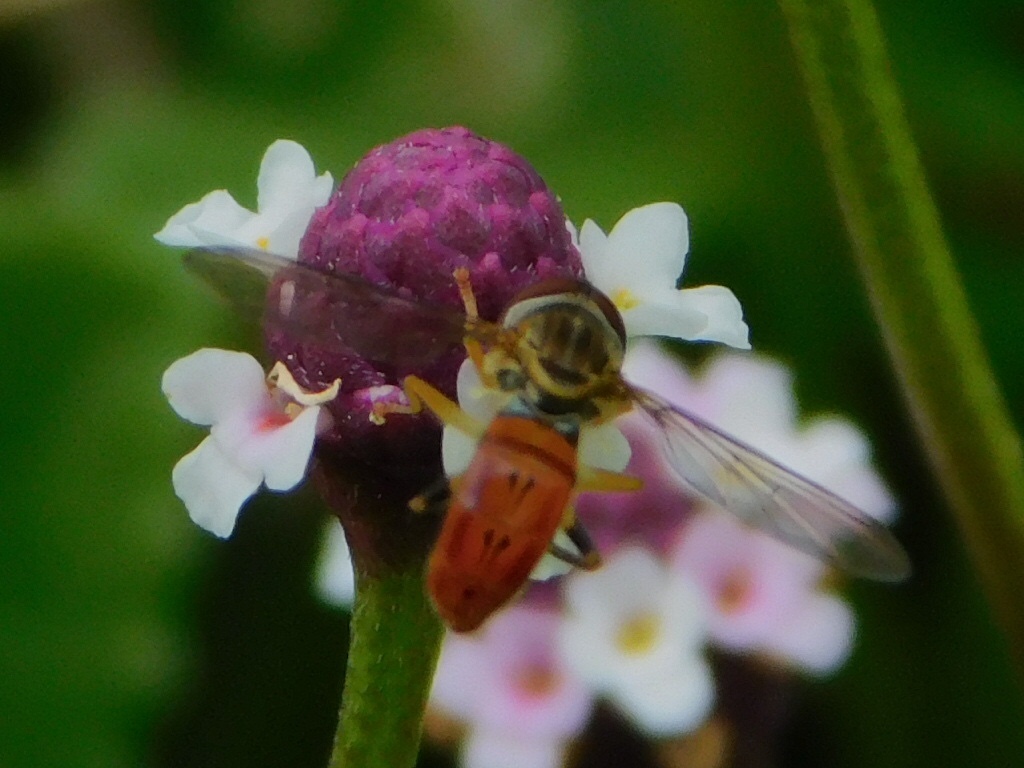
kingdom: Animalia
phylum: Arthropoda
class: Insecta
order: Diptera
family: Syrphidae
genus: Toxomerus
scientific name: Toxomerus boscii
